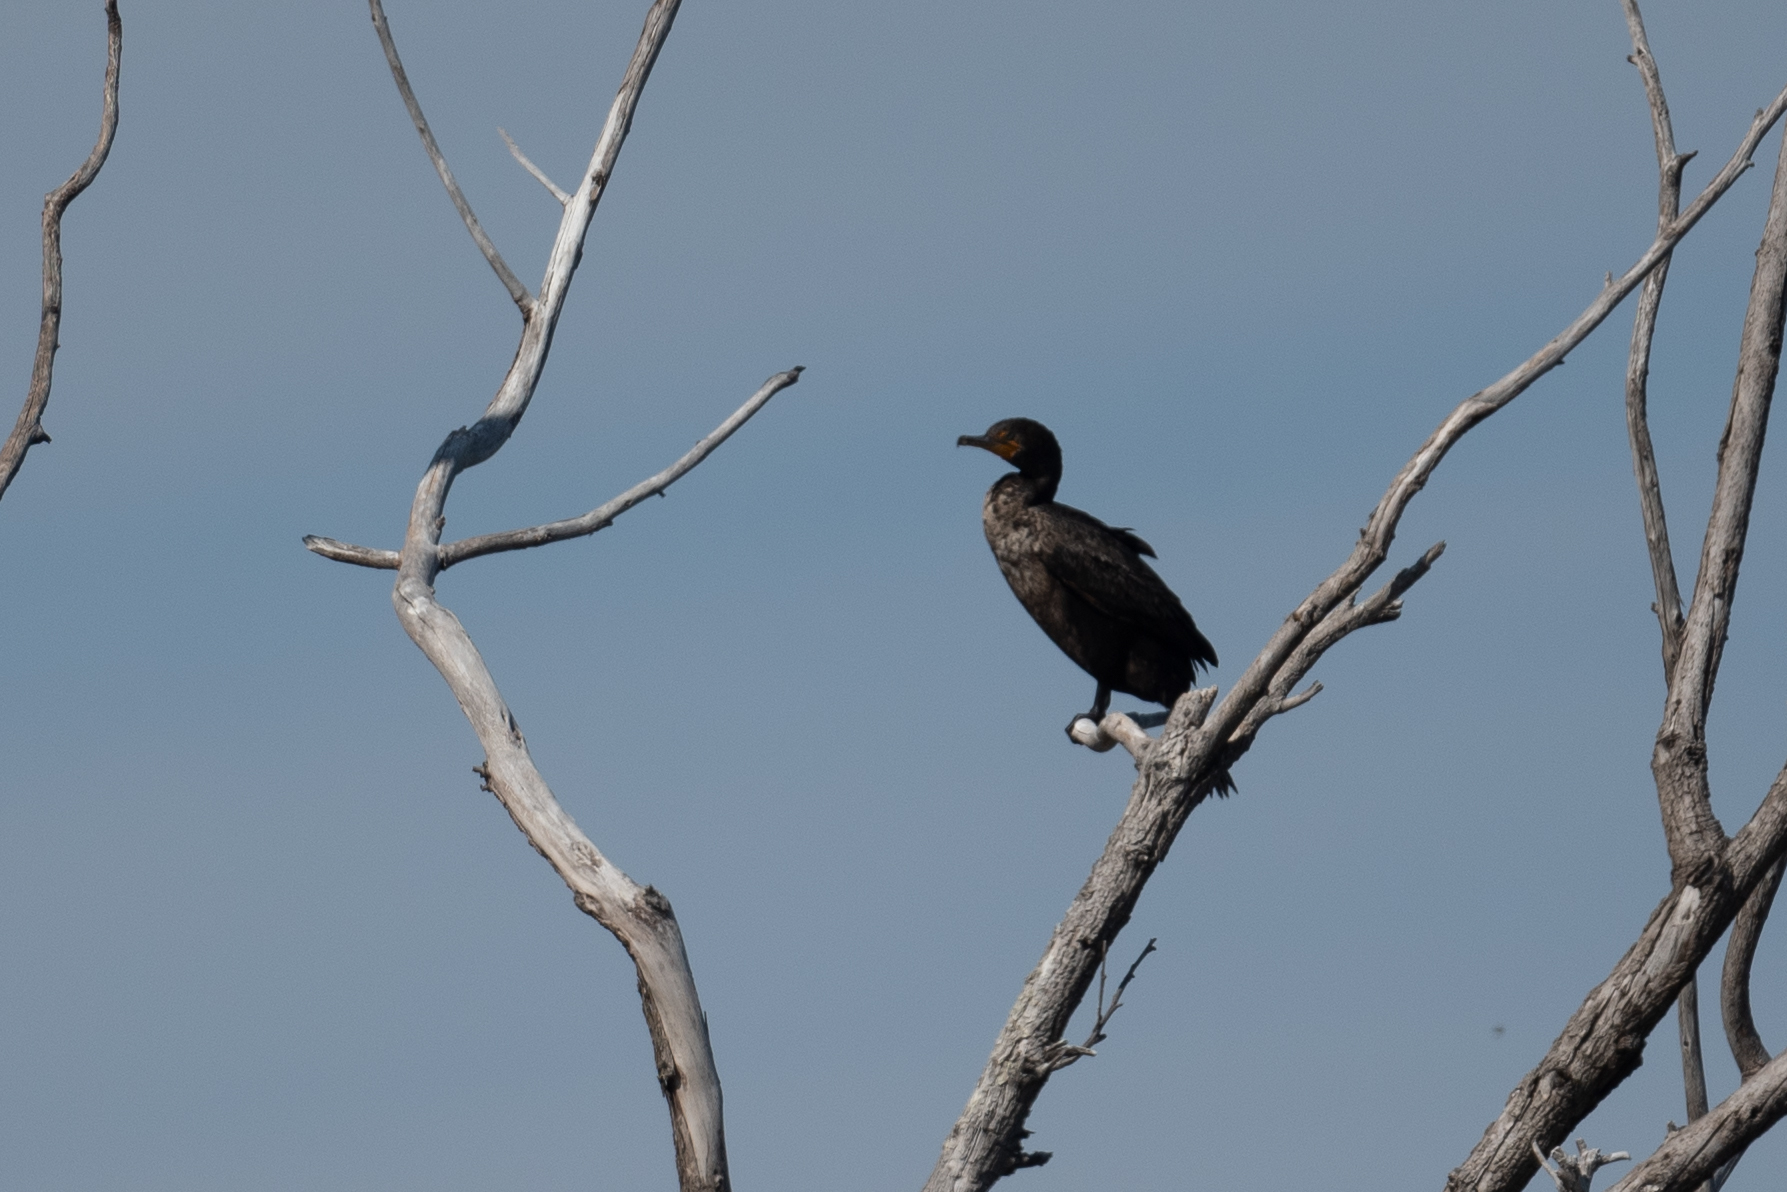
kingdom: Animalia
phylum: Chordata
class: Aves
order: Suliformes
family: Phalacrocoracidae
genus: Phalacrocorax
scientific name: Phalacrocorax auritus
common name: Double-crested cormorant
